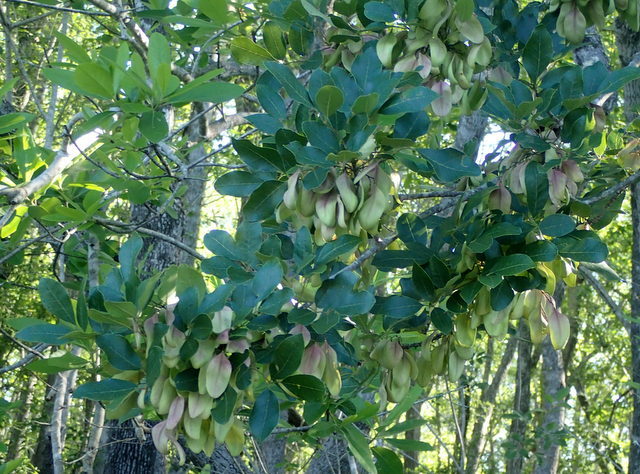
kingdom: Plantae
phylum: Tracheophyta
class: Magnoliopsida
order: Lamiales
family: Oleaceae
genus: Fraxinus
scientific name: Fraxinus caroliniana
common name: Carolina ash
